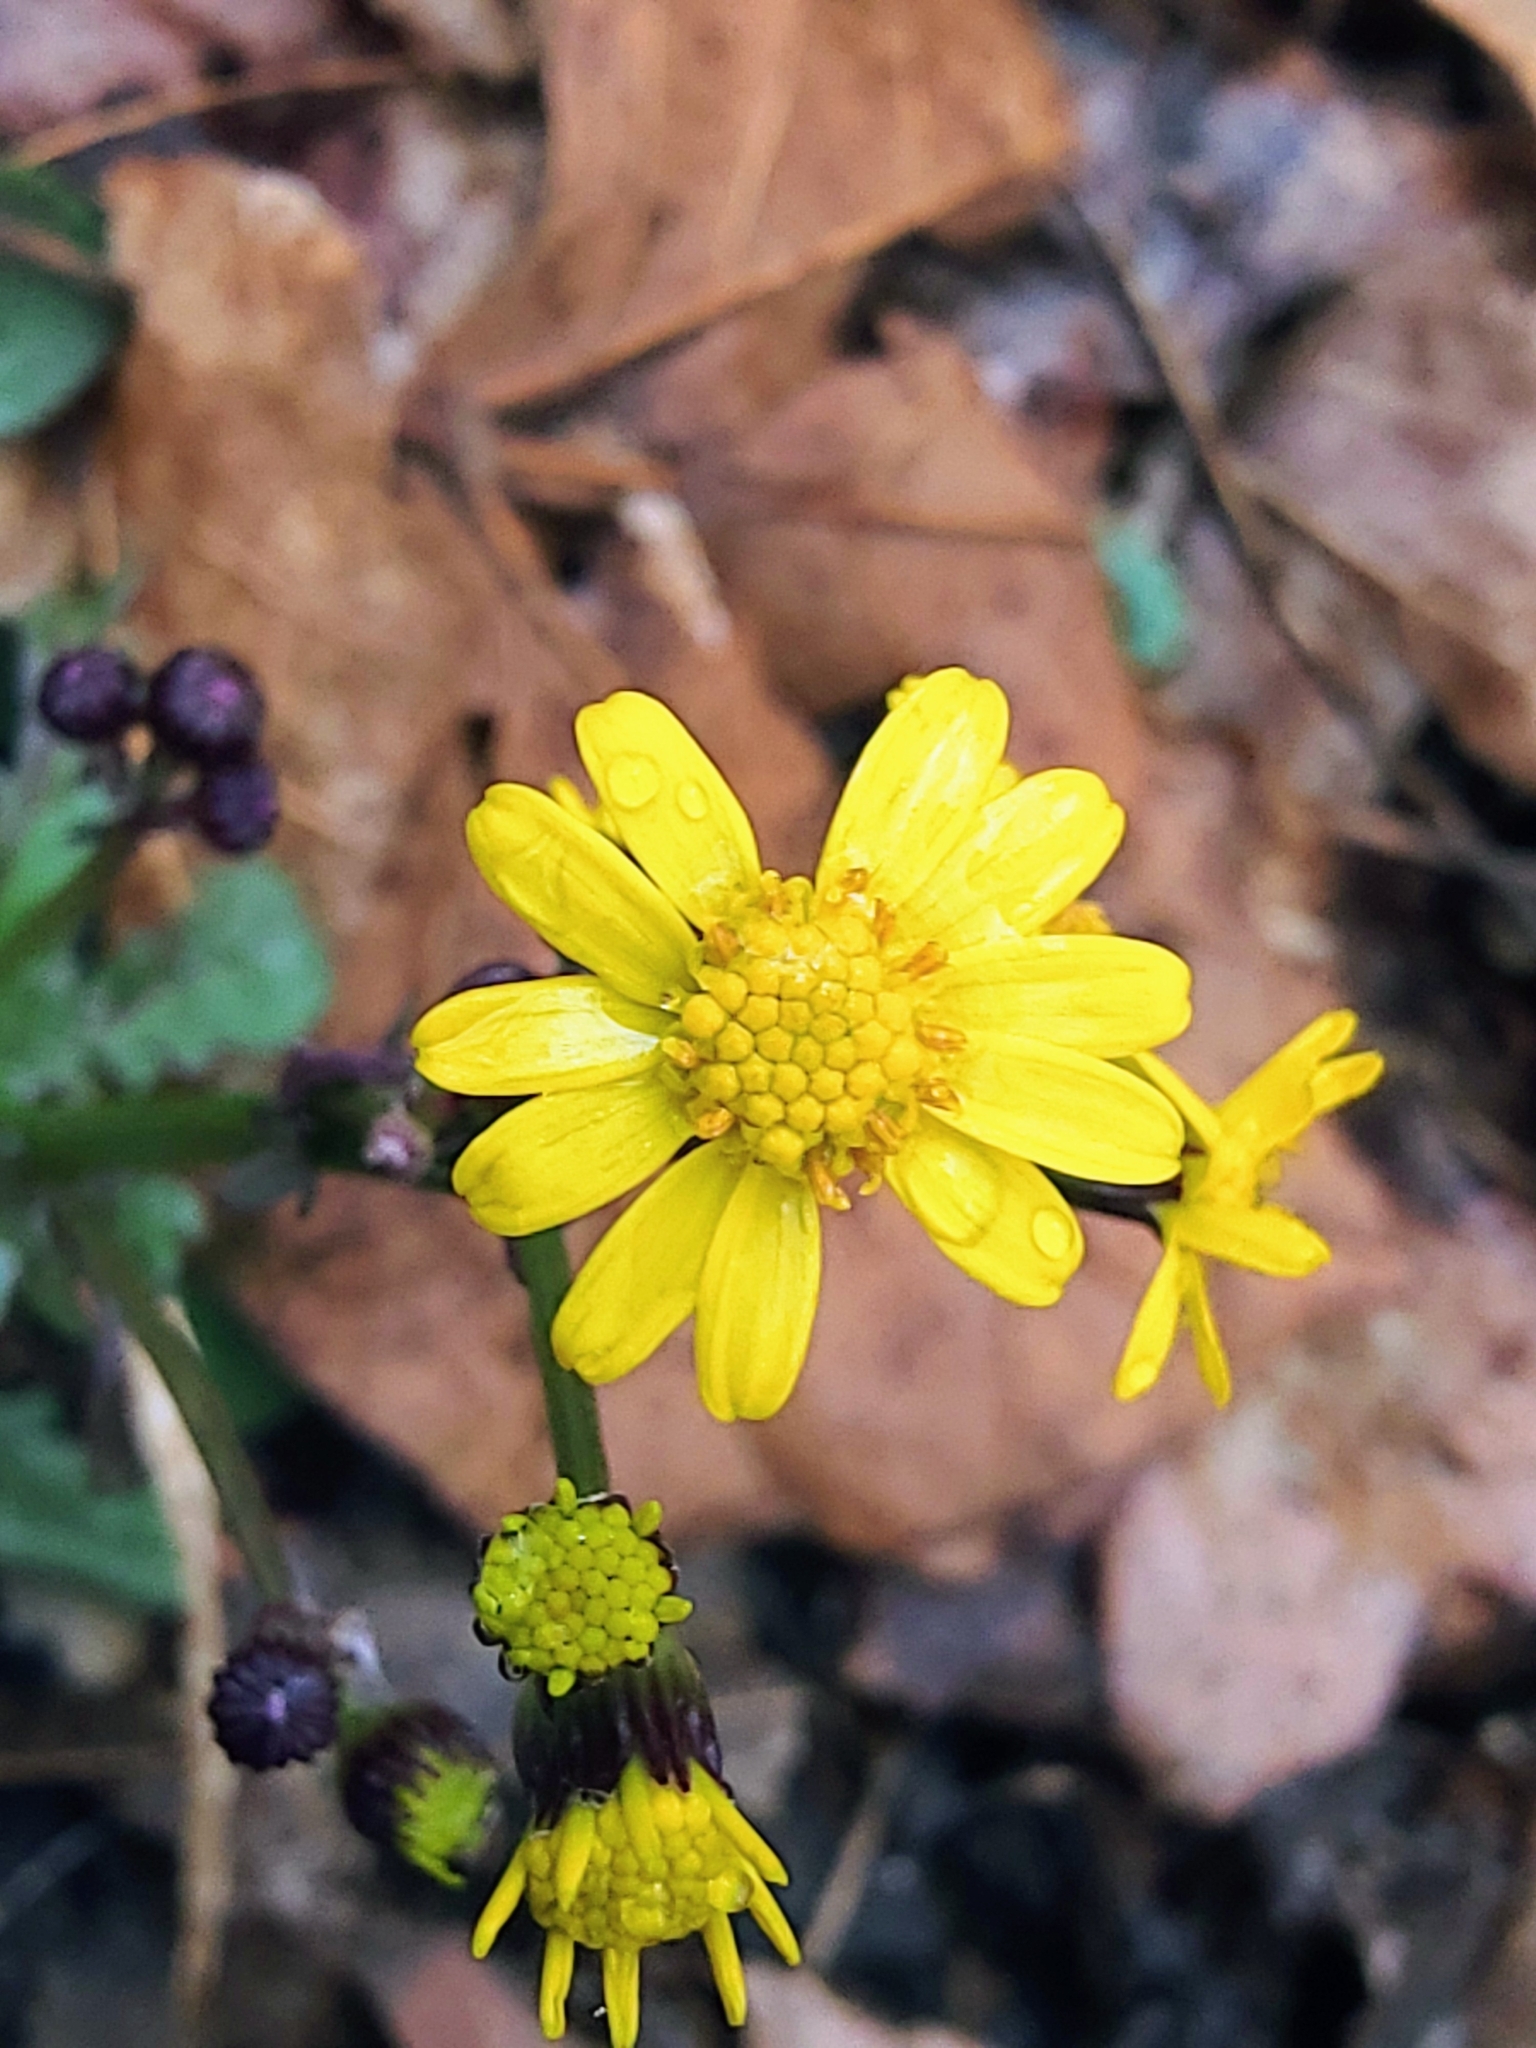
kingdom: Plantae
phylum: Tracheophyta
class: Magnoliopsida
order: Asterales
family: Asteraceae
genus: Packera
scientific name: Packera obovata
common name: Round-leaf ragwort
